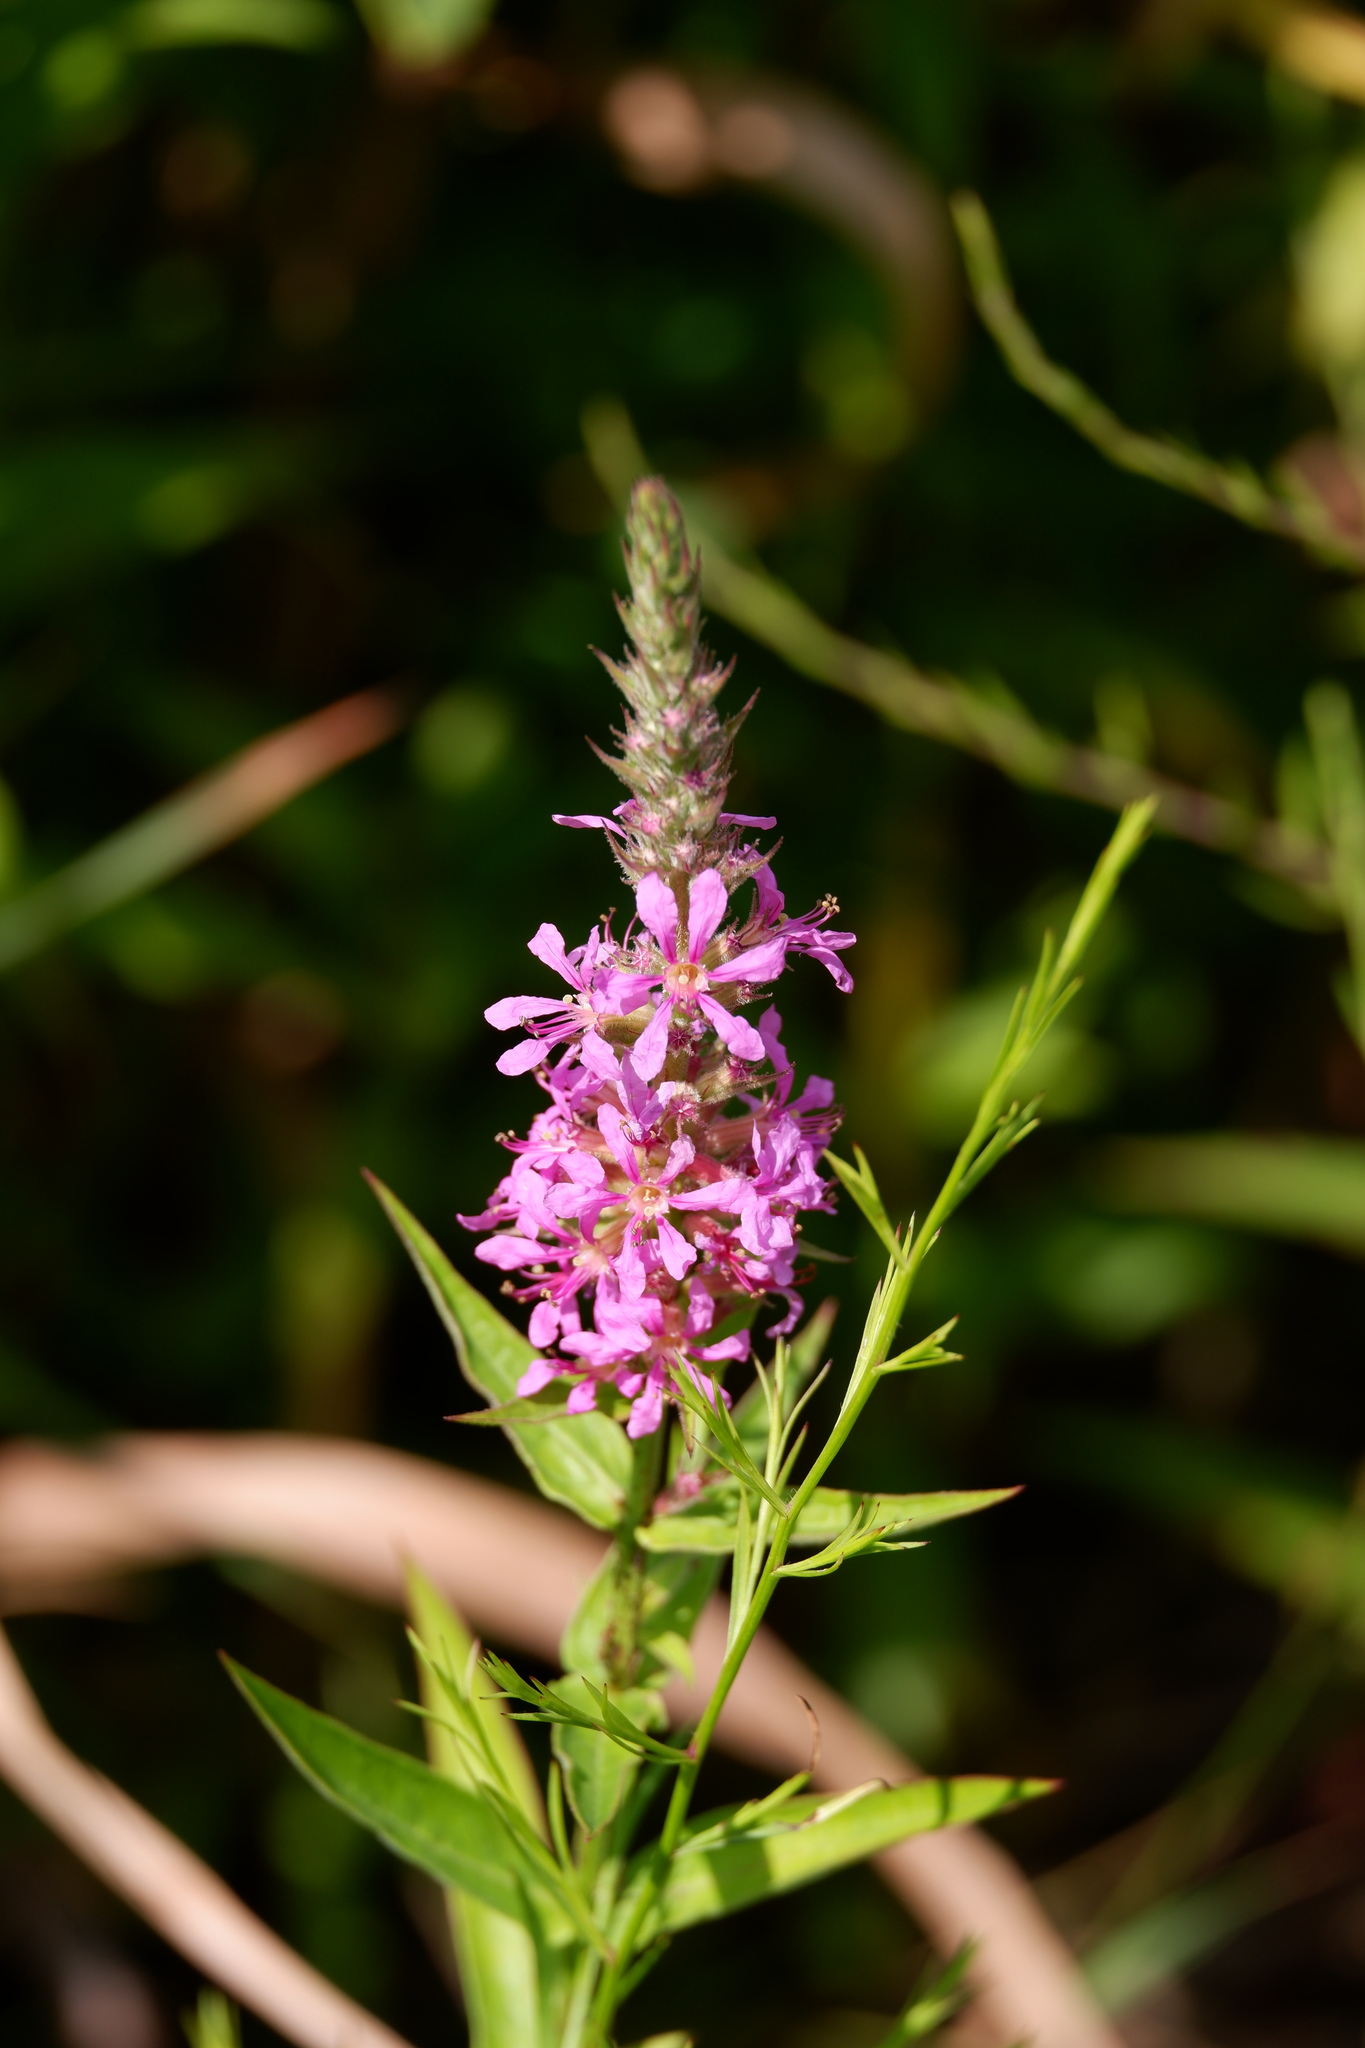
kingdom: Plantae
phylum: Tracheophyta
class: Magnoliopsida
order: Myrtales
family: Lythraceae
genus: Lythrum
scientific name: Lythrum salicaria
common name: Purple loosestrife
